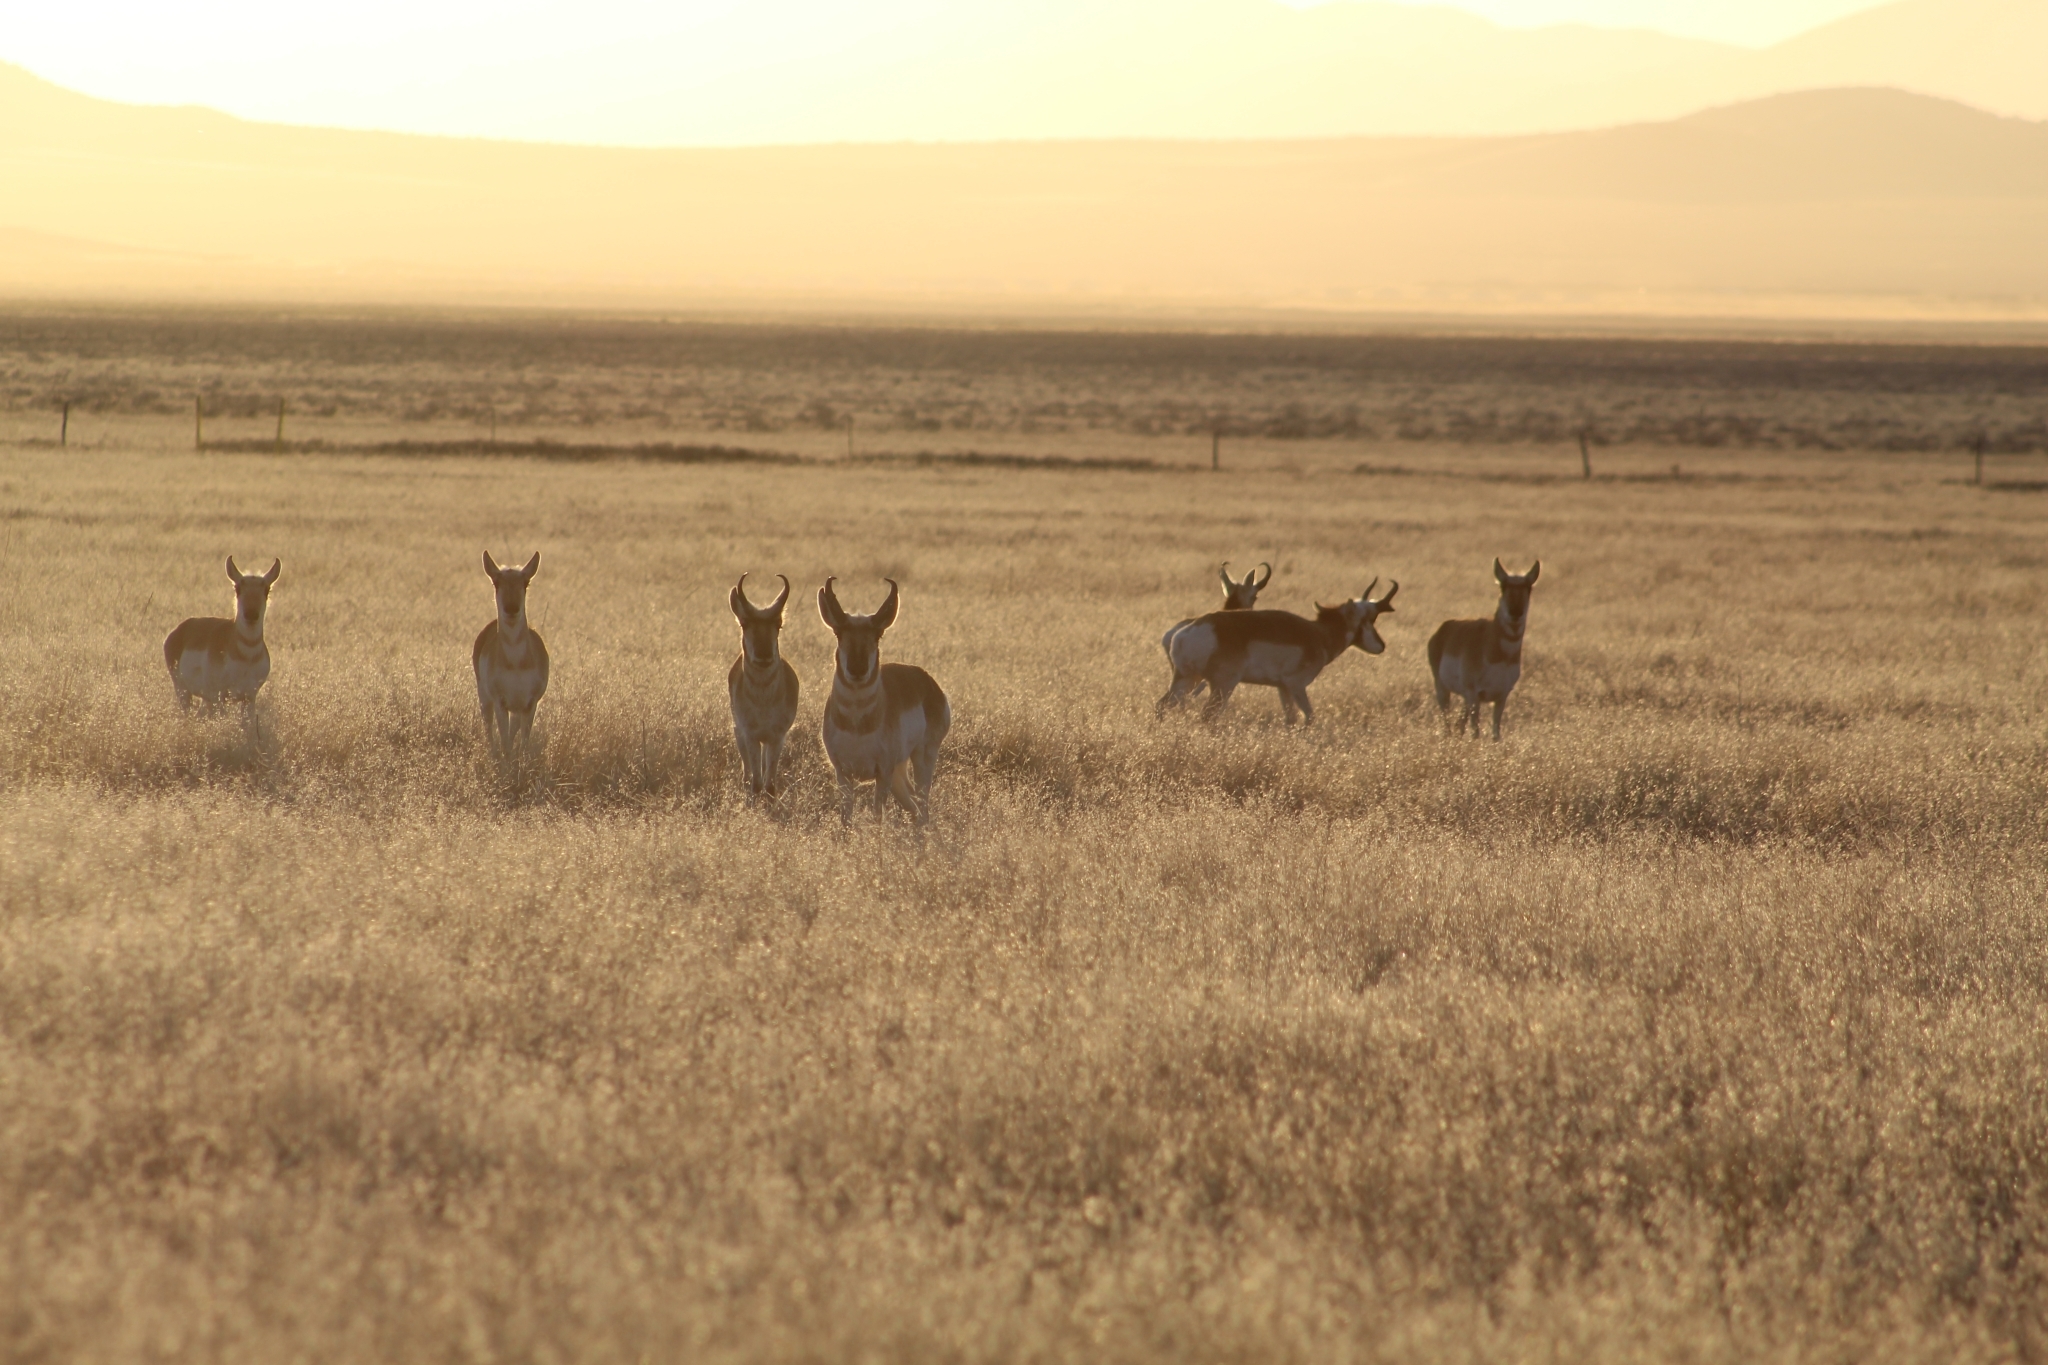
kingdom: Animalia
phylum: Chordata
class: Mammalia
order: Artiodactyla
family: Antilocapridae
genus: Antilocapra
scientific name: Antilocapra americana
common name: Pronghorn
